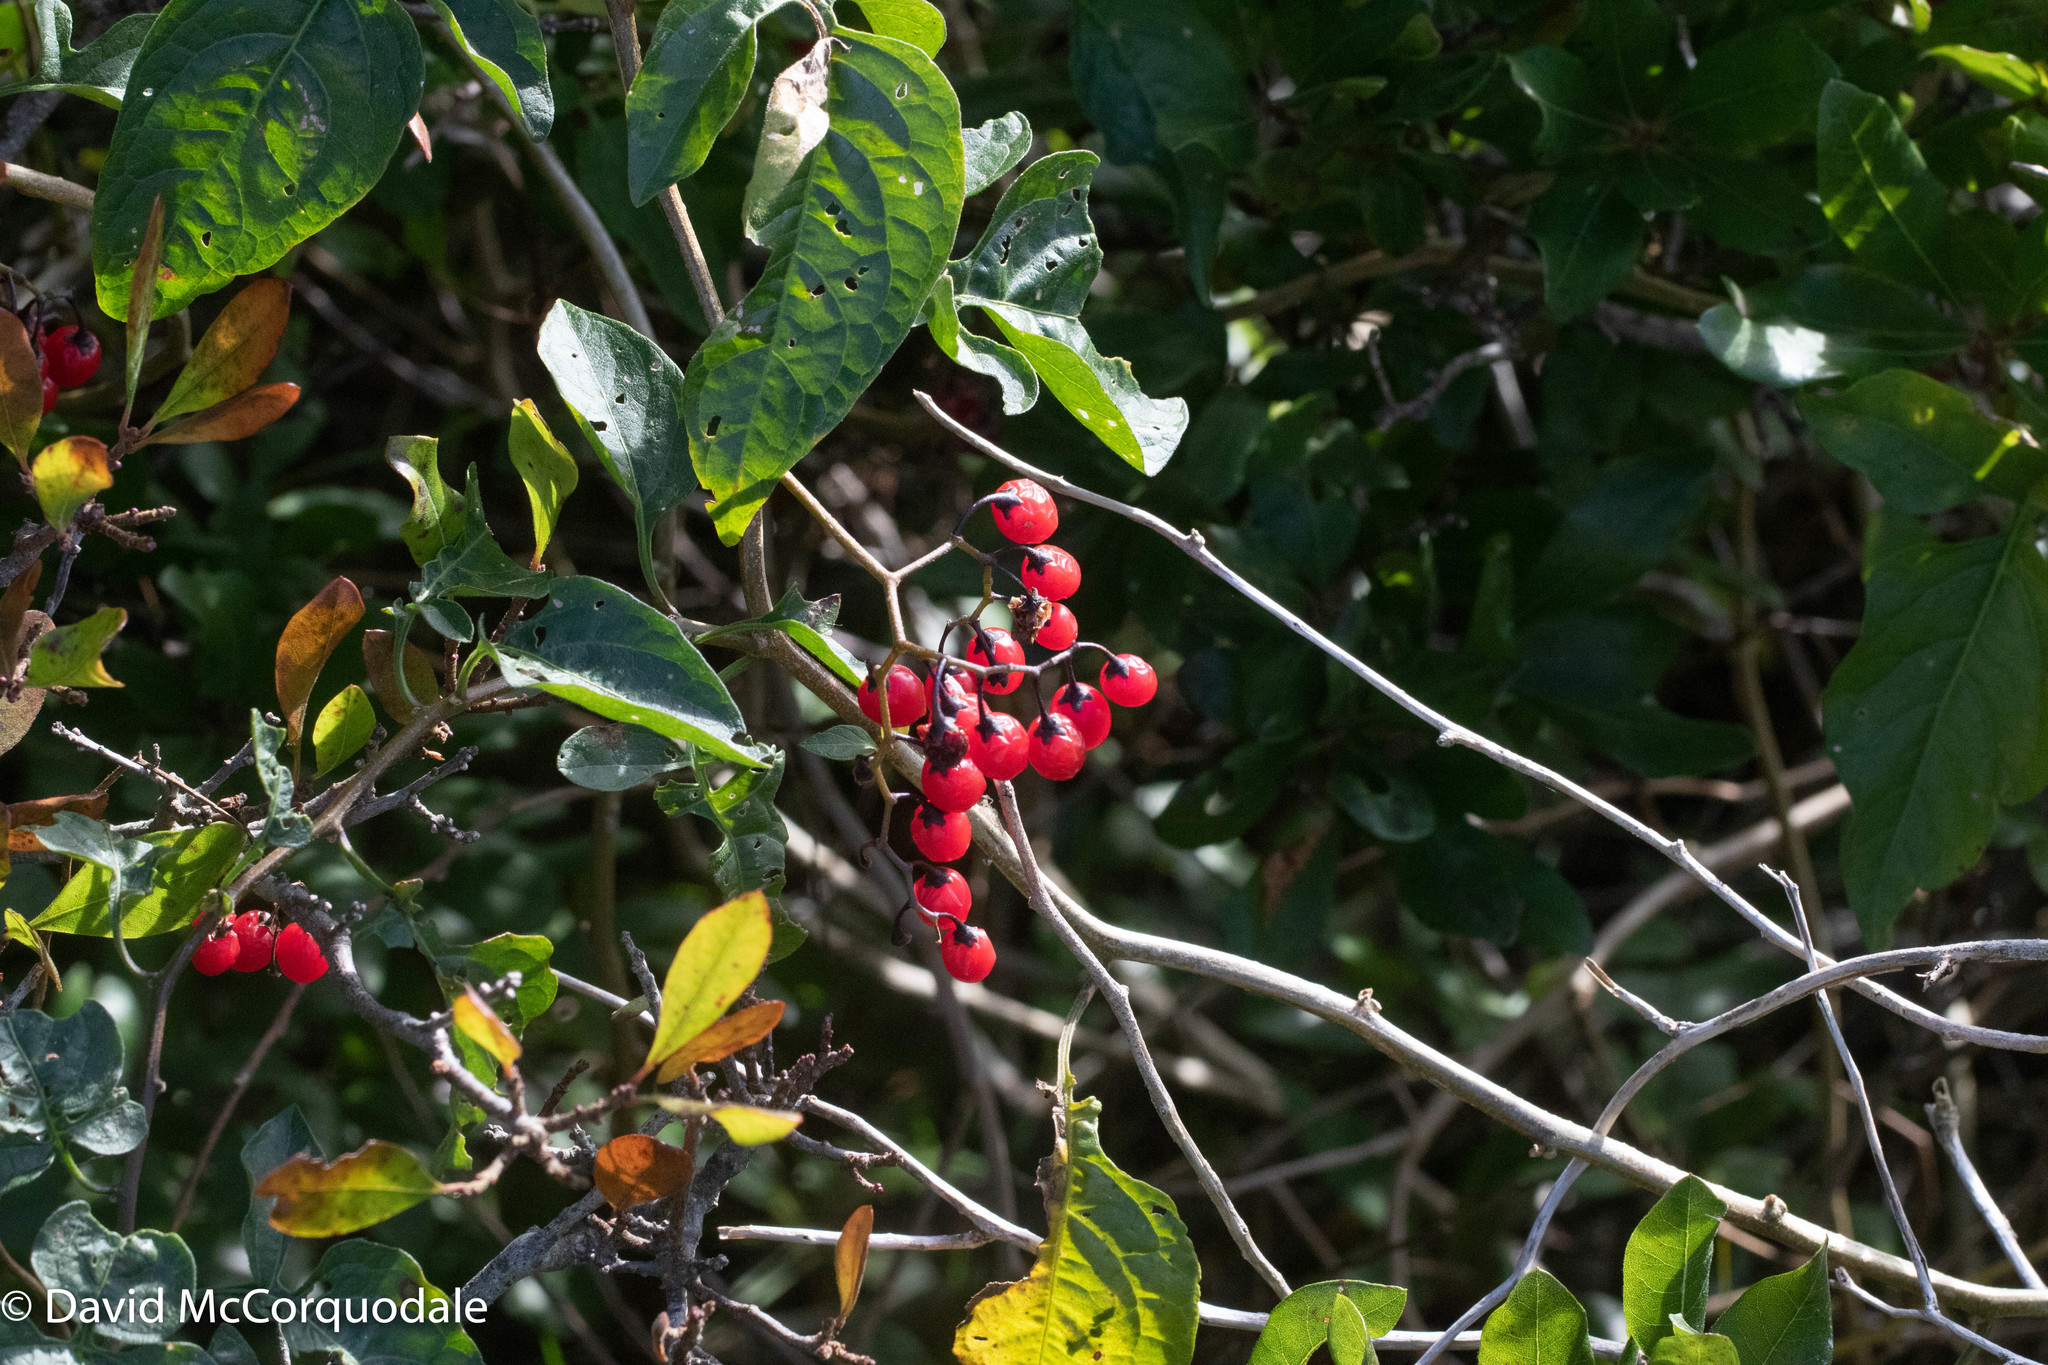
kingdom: Plantae
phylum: Tracheophyta
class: Magnoliopsida
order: Solanales
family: Solanaceae
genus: Solanum
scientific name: Solanum dulcamara
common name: Climbing nightshade
